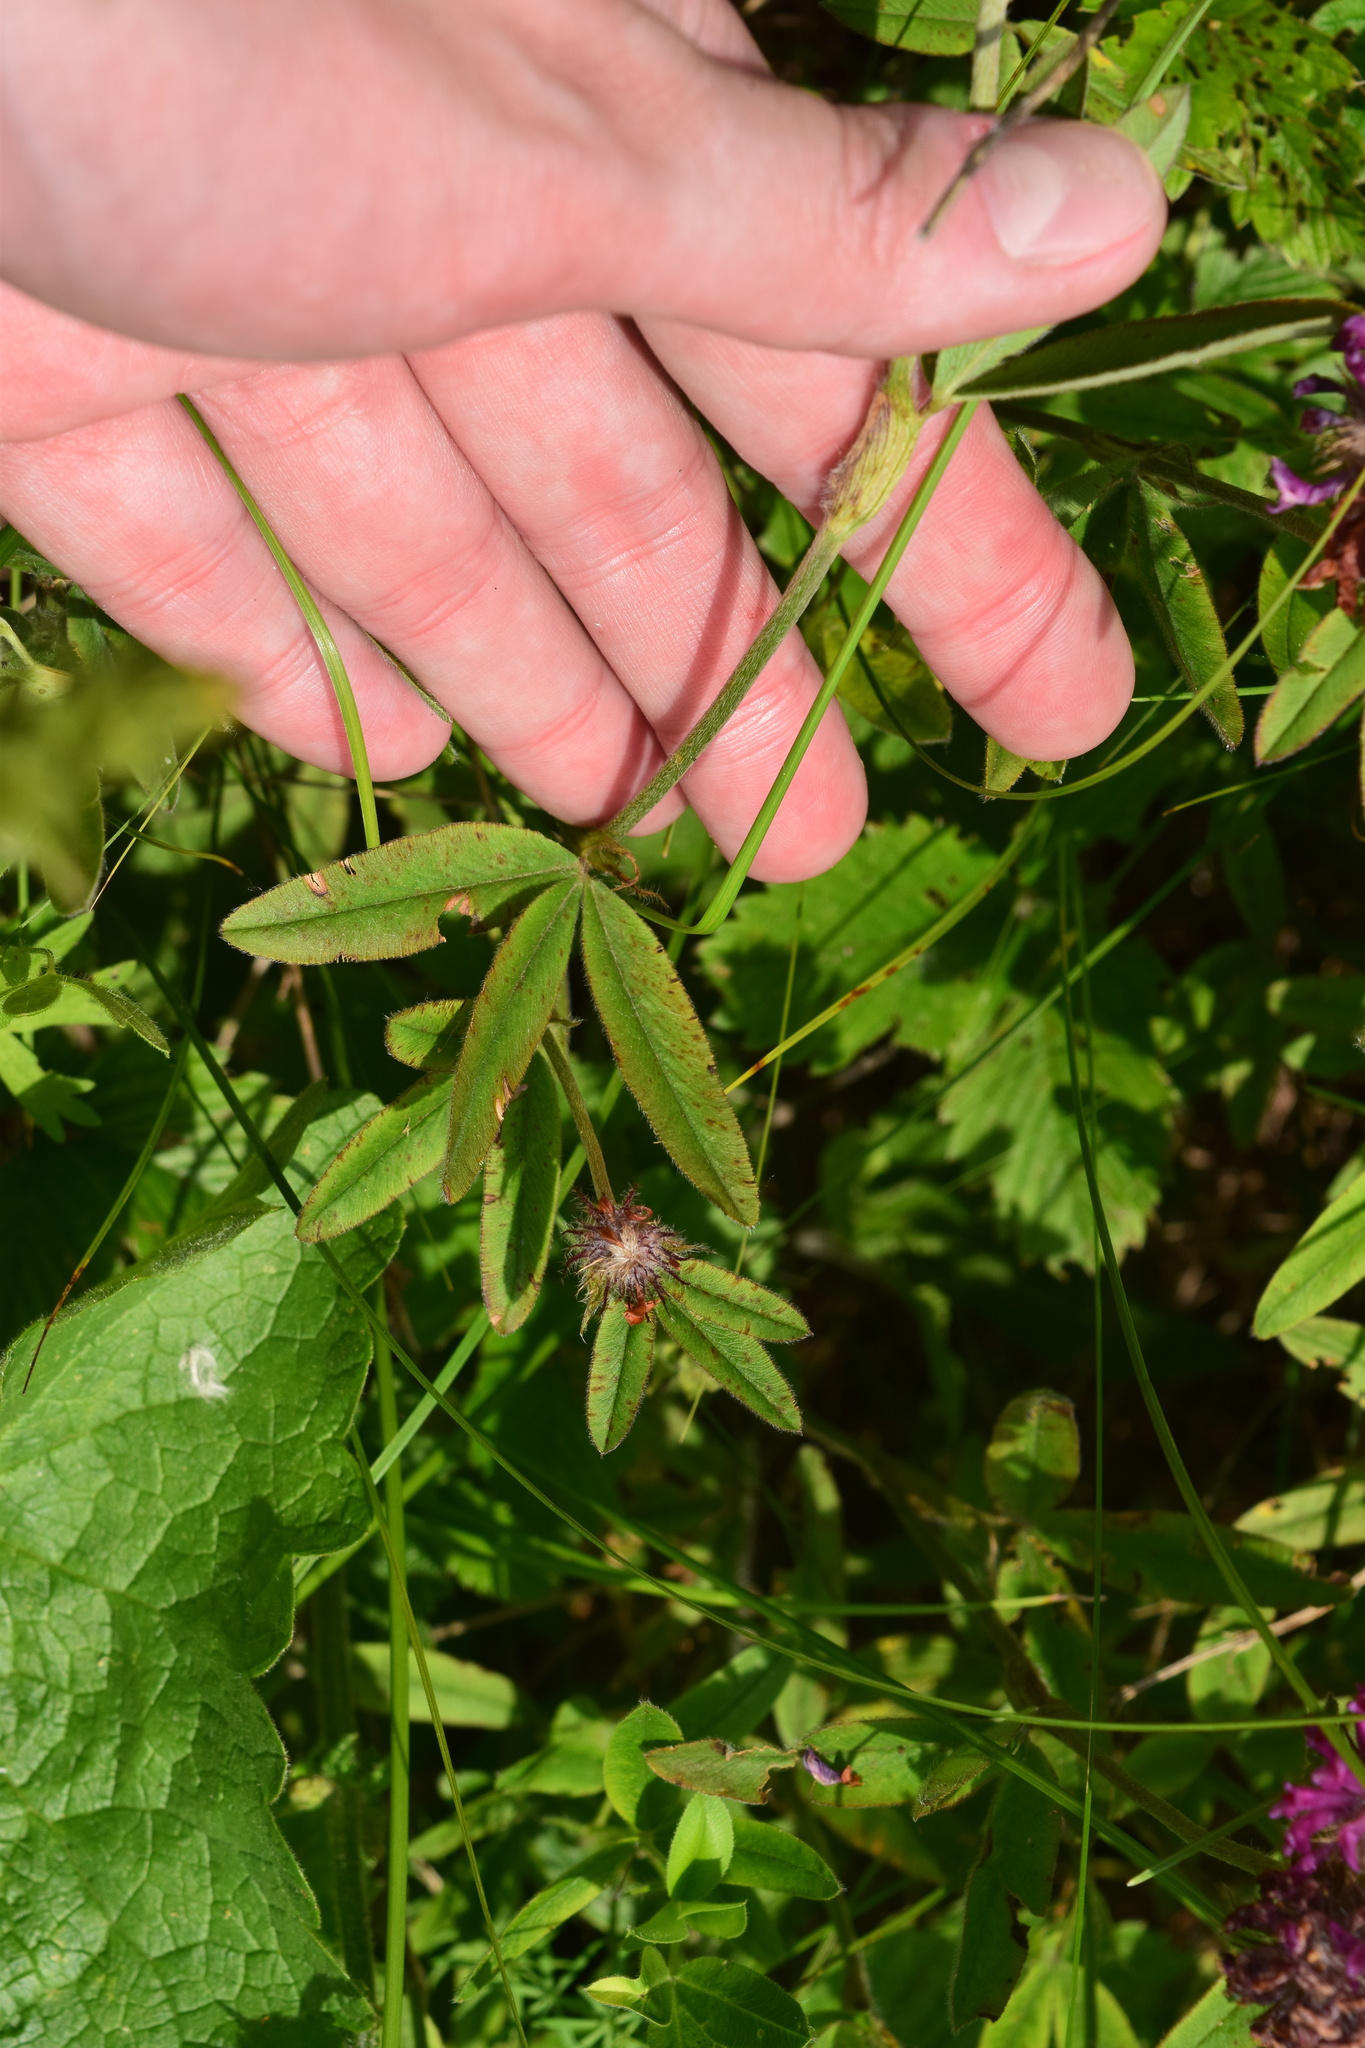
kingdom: Plantae
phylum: Tracheophyta
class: Magnoliopsida
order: Fabales
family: Fabaceae
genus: Trifolium
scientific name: Trifolium alpestre
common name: Owl-head clover
